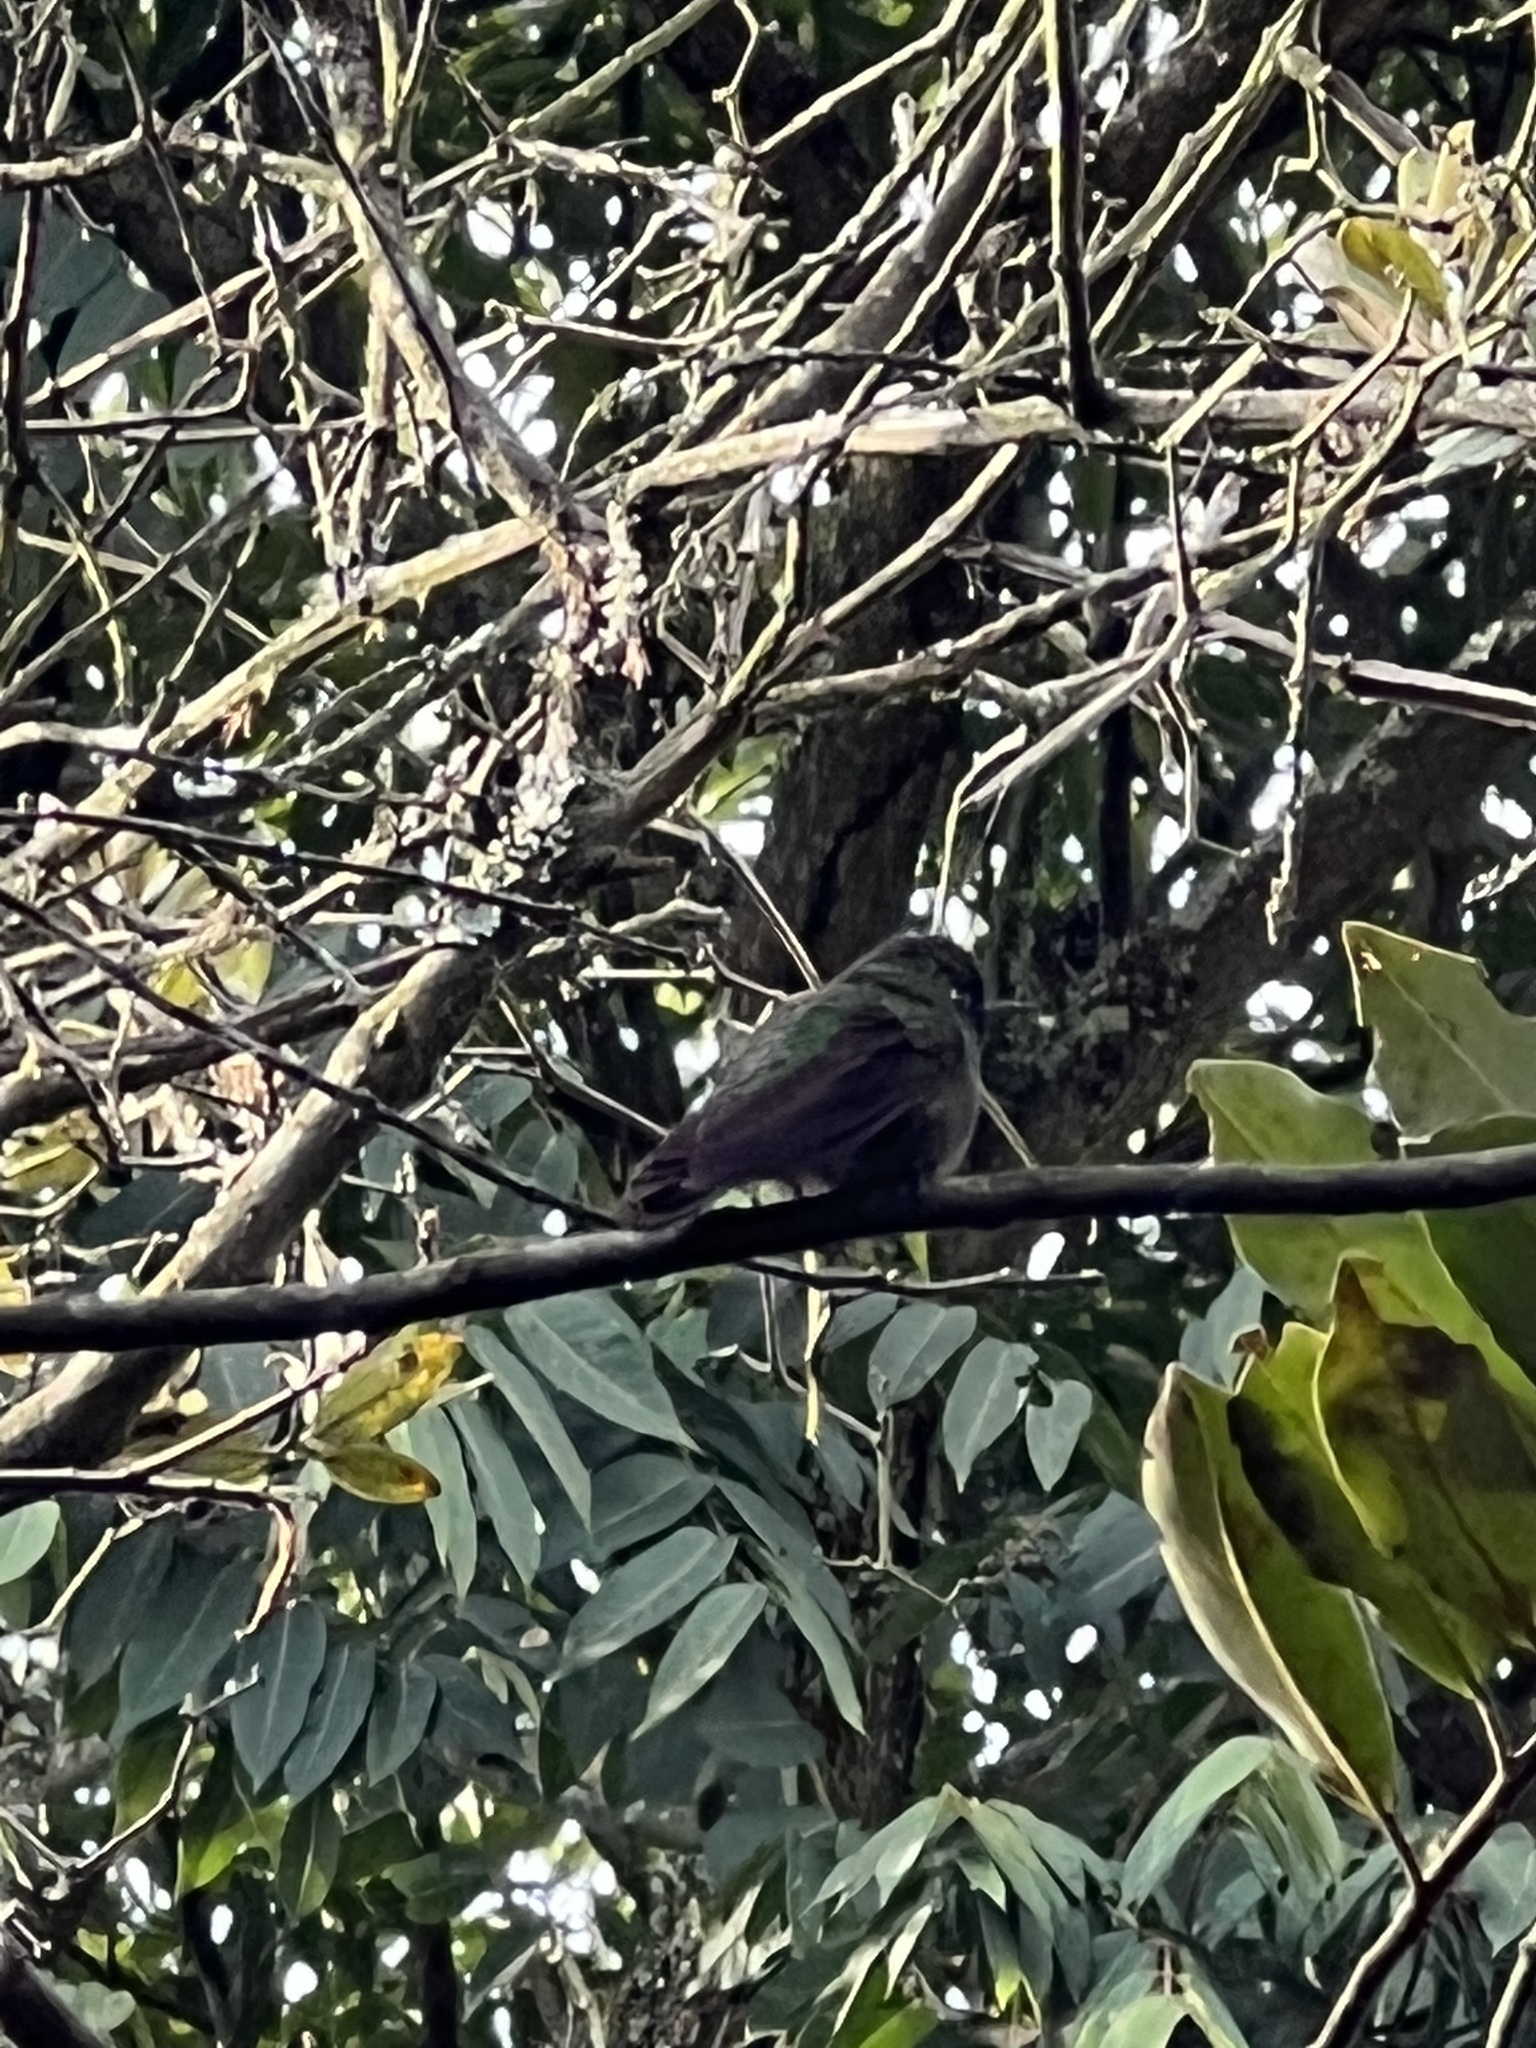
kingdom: Animalia
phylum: Chordata
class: Aves
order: Apodiformes
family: Trochilidae
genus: Metallura
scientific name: Metallura tyrianthina
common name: Tyrian metaltail
